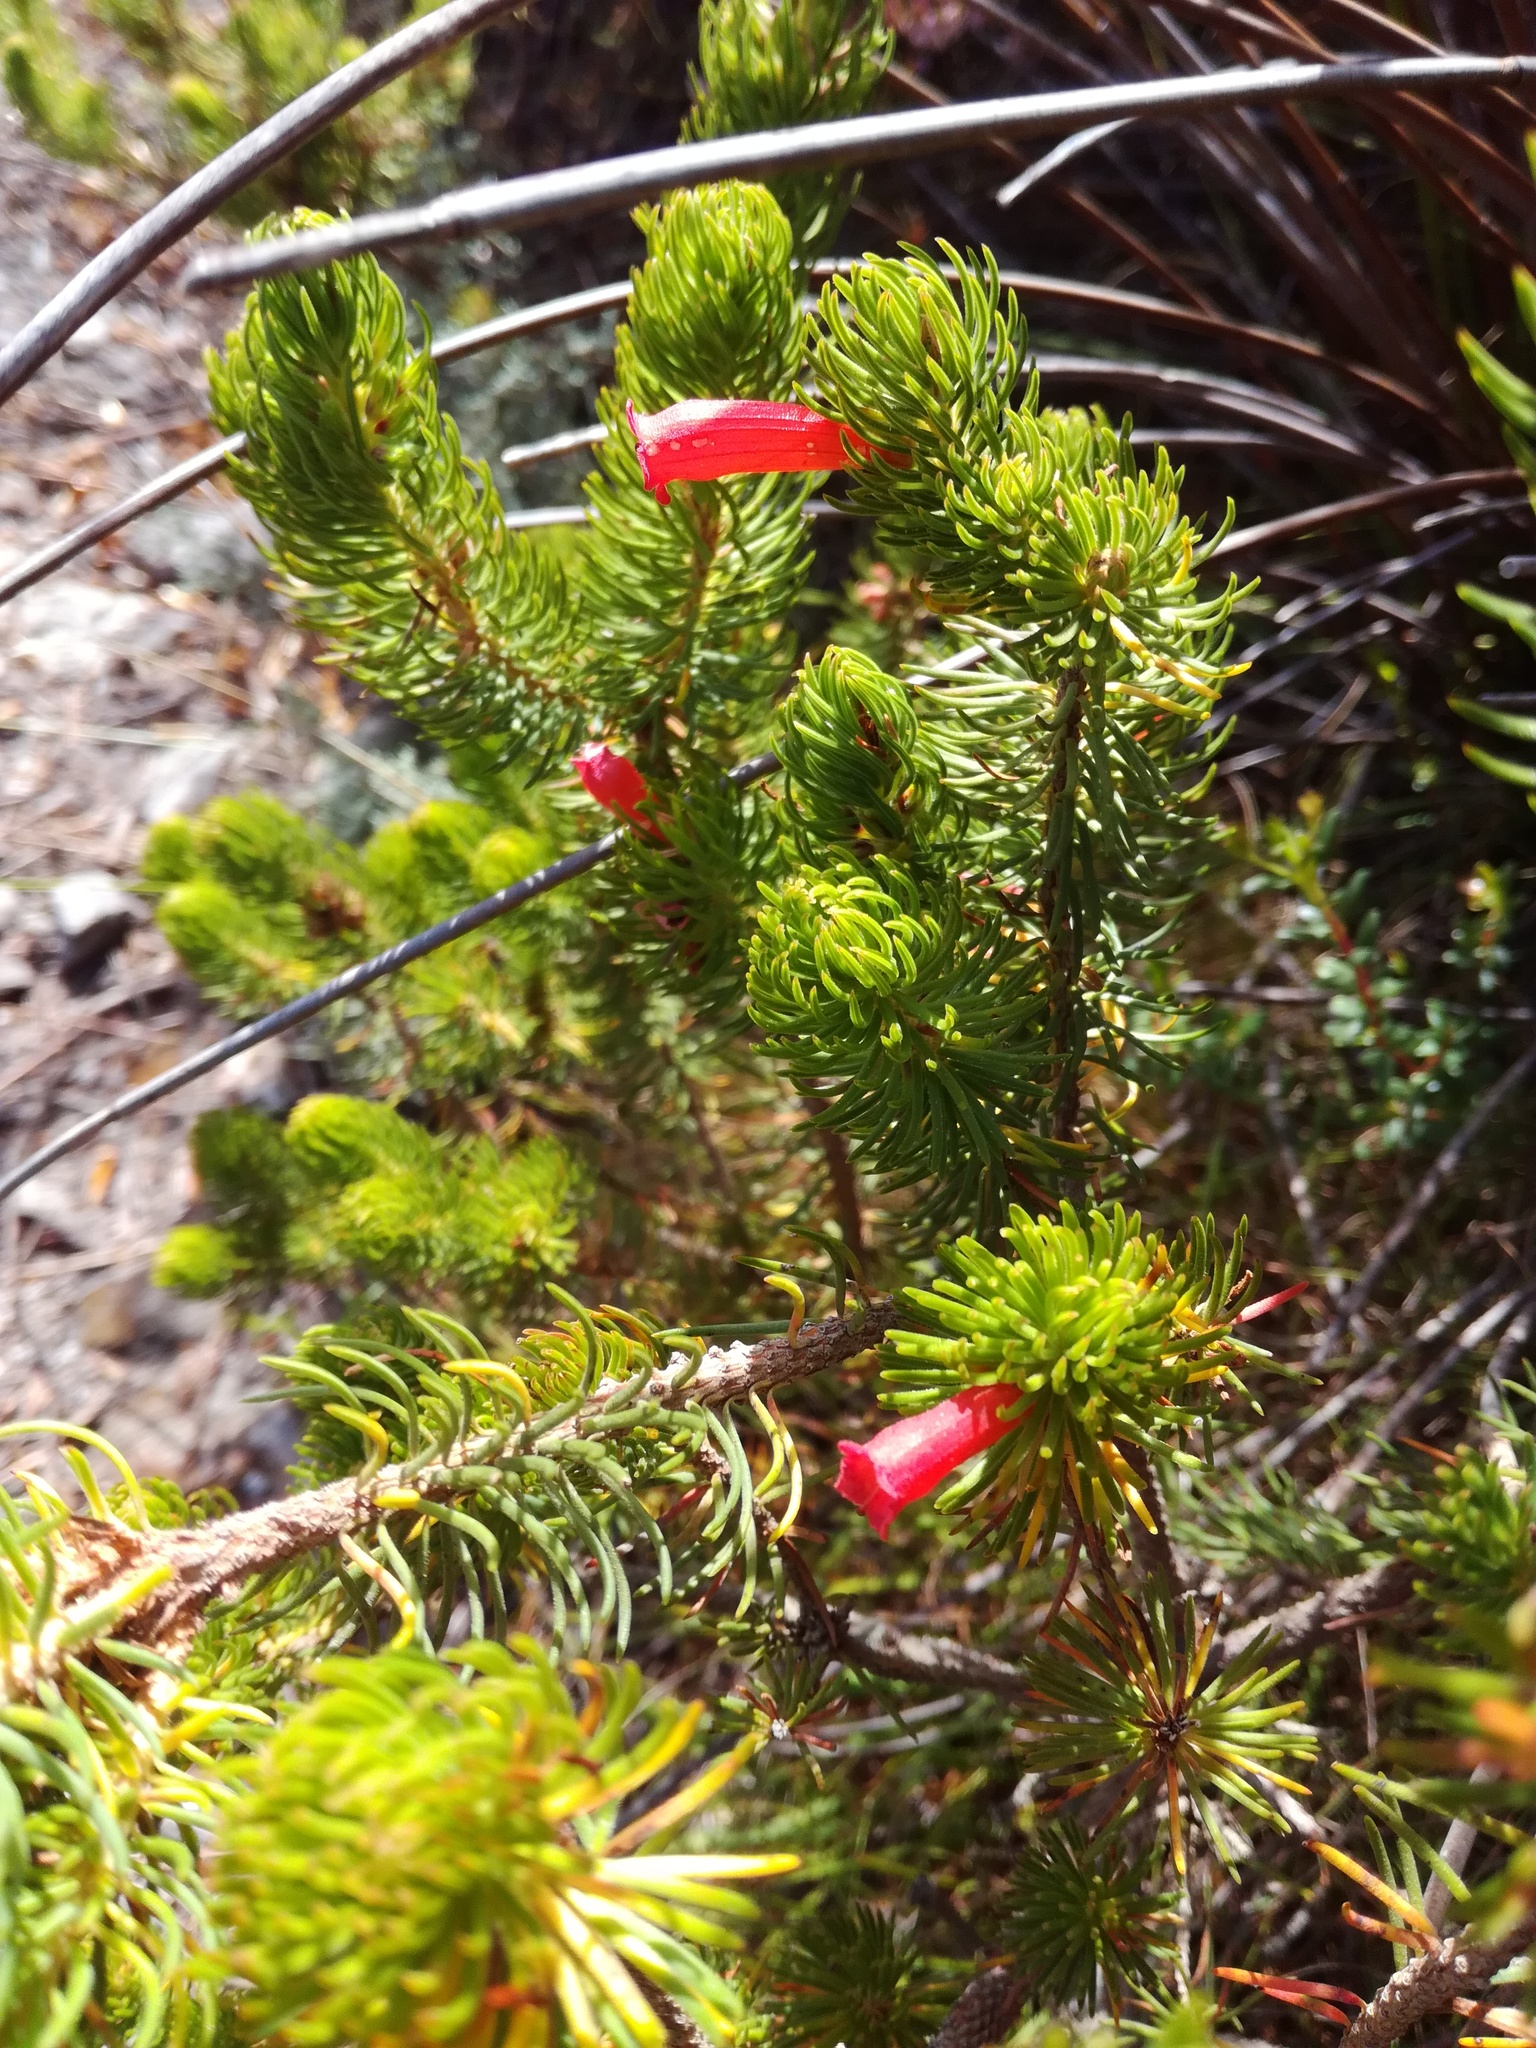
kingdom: Plantae
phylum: Tracheophyta
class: Magnoliopsida
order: Ericales
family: Ericaceae
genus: Erica
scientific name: Erica viscaria
